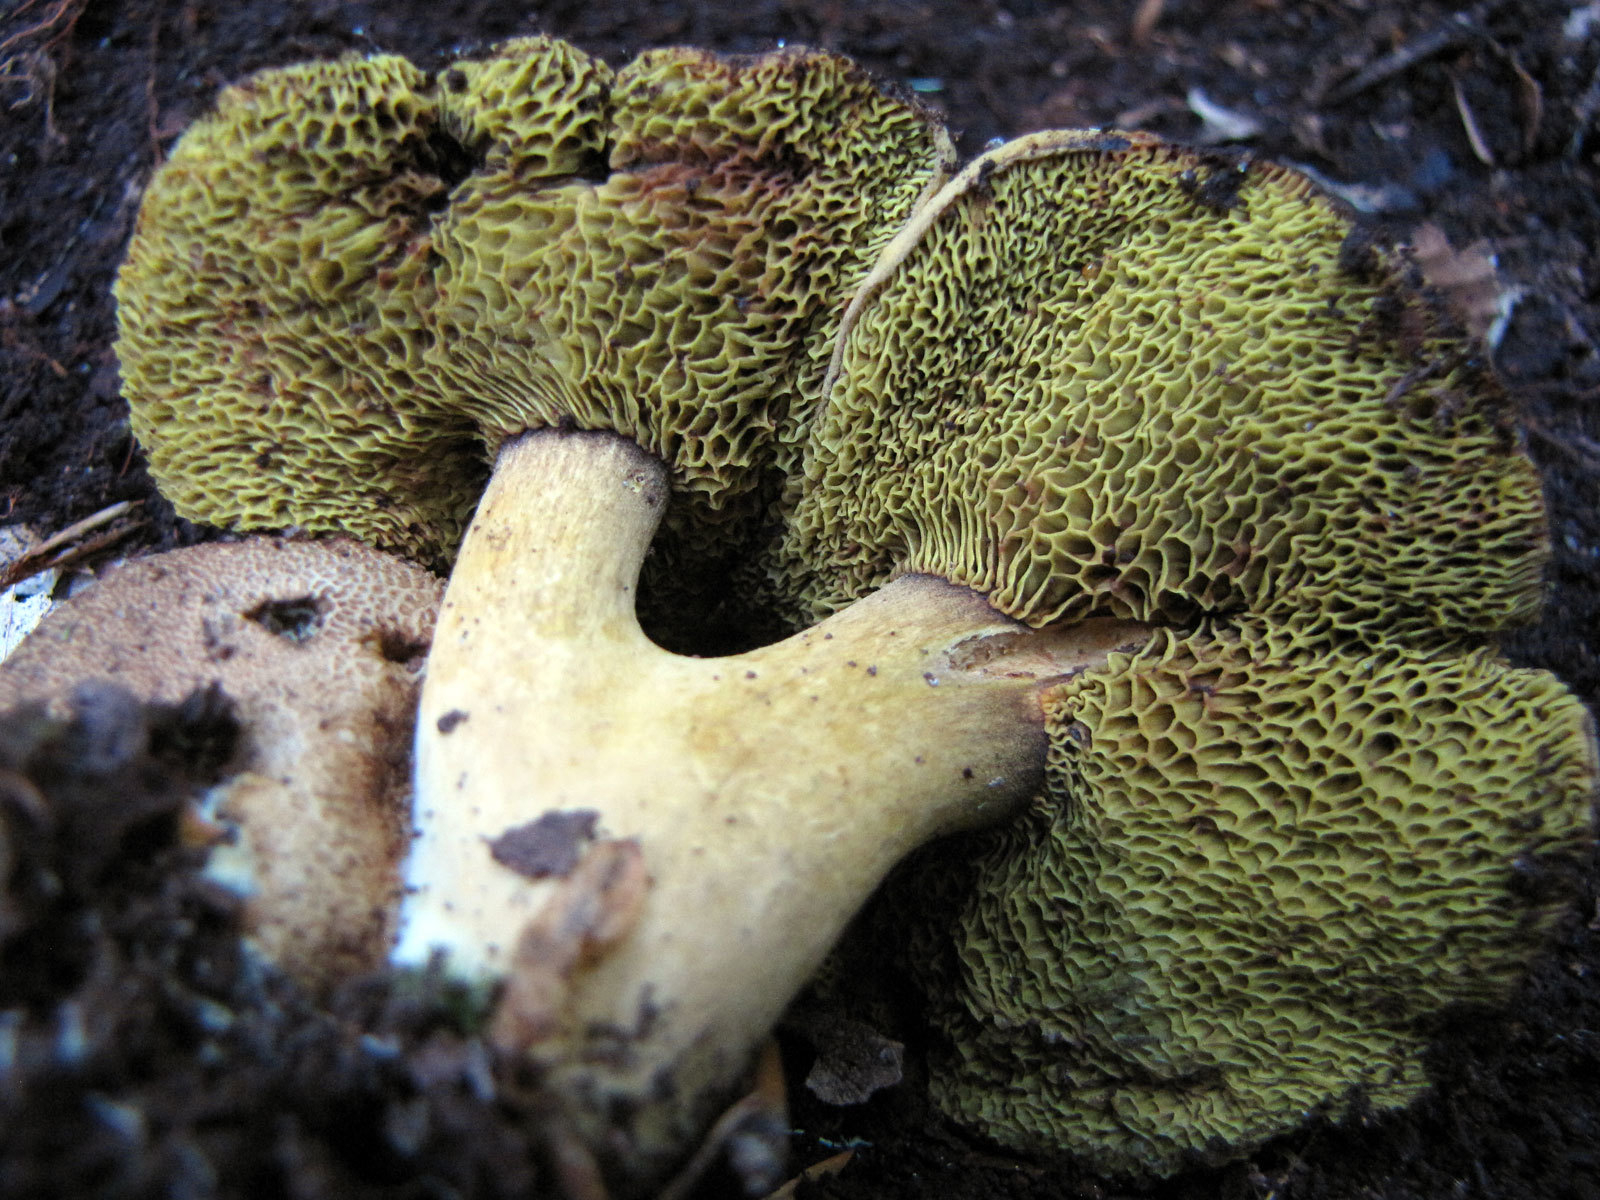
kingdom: Fungi
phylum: Basidiomycota
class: Agaricomycetes
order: Boletales
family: Boletaceae
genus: Pseudoboletus
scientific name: Pseudoboletus parasiticus
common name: Parasitic bolete
